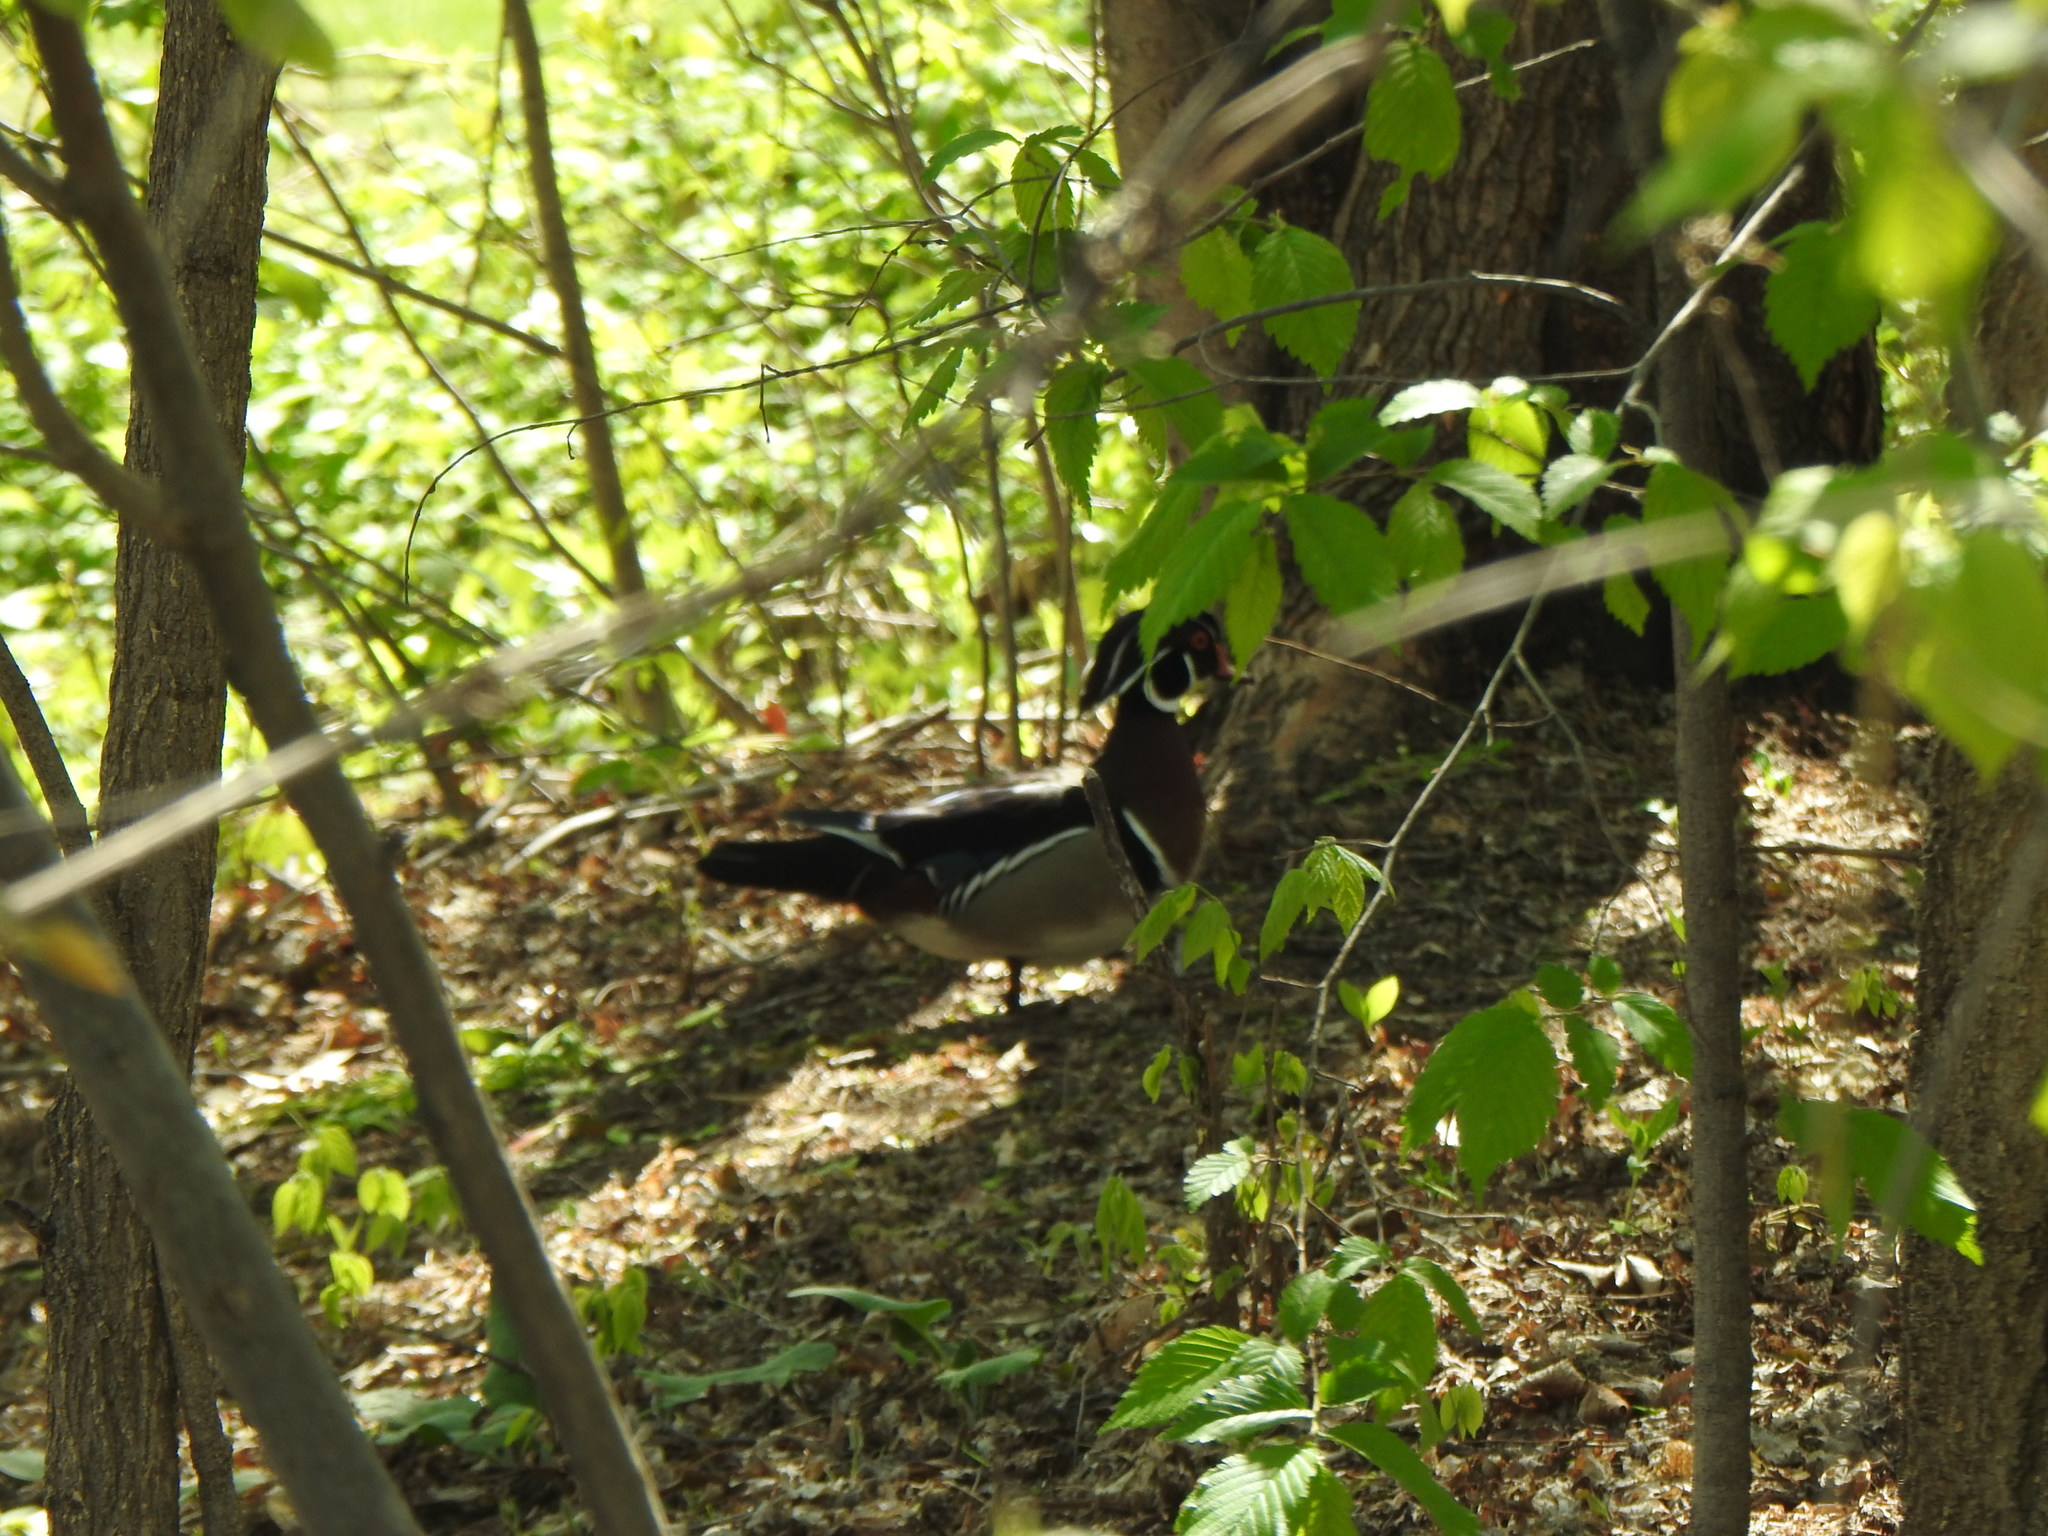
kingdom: Animalia
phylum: Chordata
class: Aves
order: Anseriformes
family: Anatidae
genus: Aix
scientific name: Aix sponsa
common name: Wood duck
